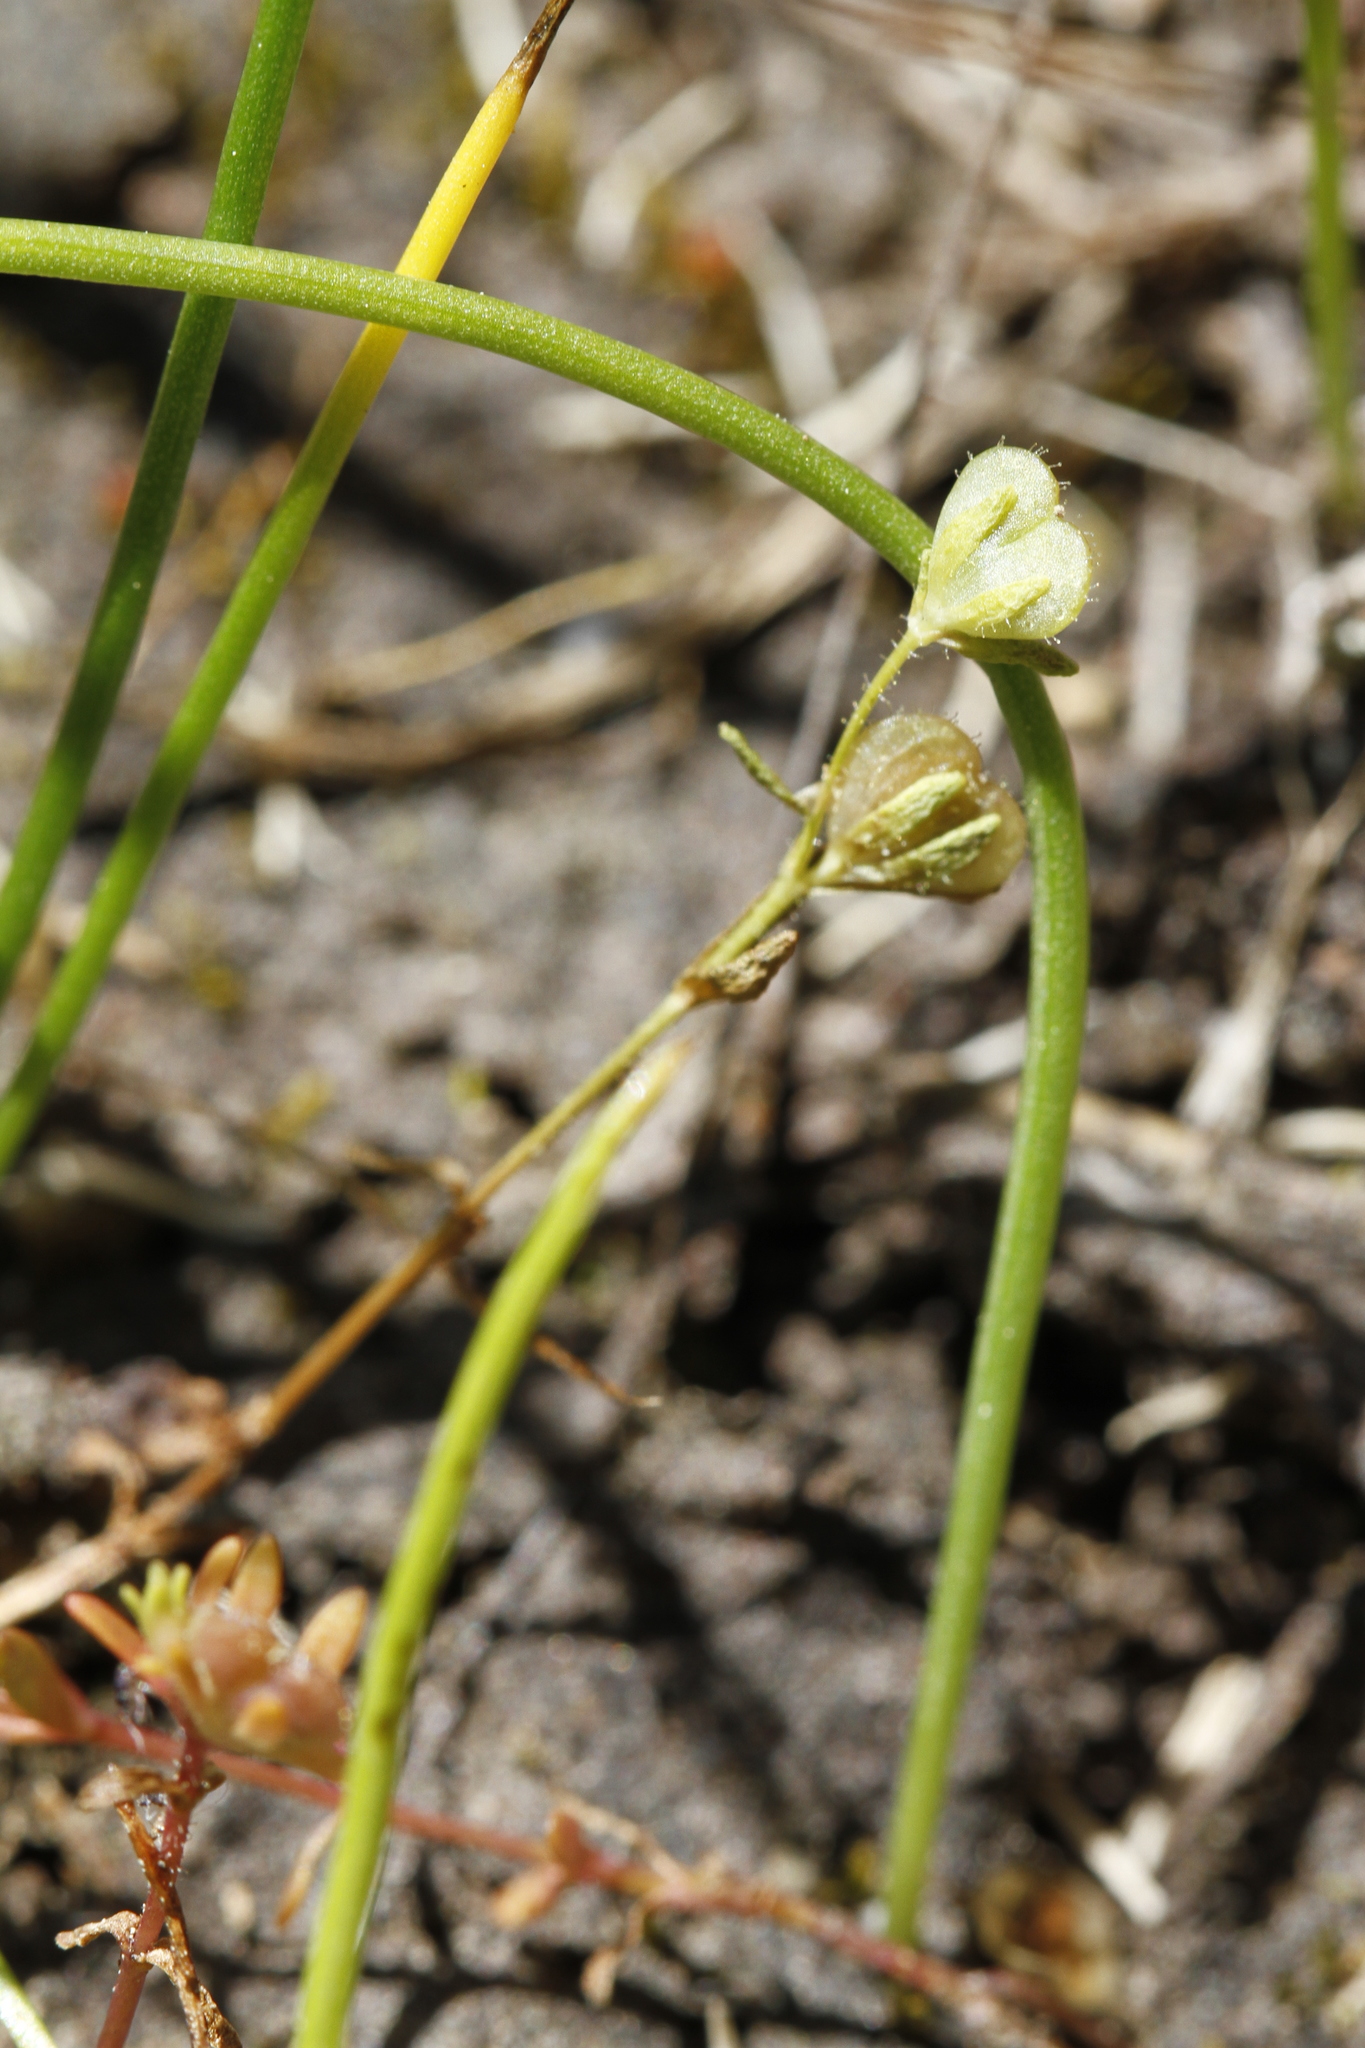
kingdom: Plantae
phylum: Tracheophyta
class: Magnoliopsida
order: Lamiales
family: Plantaginaceae
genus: Veronica
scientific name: Veronica peregrina
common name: Neckweed
